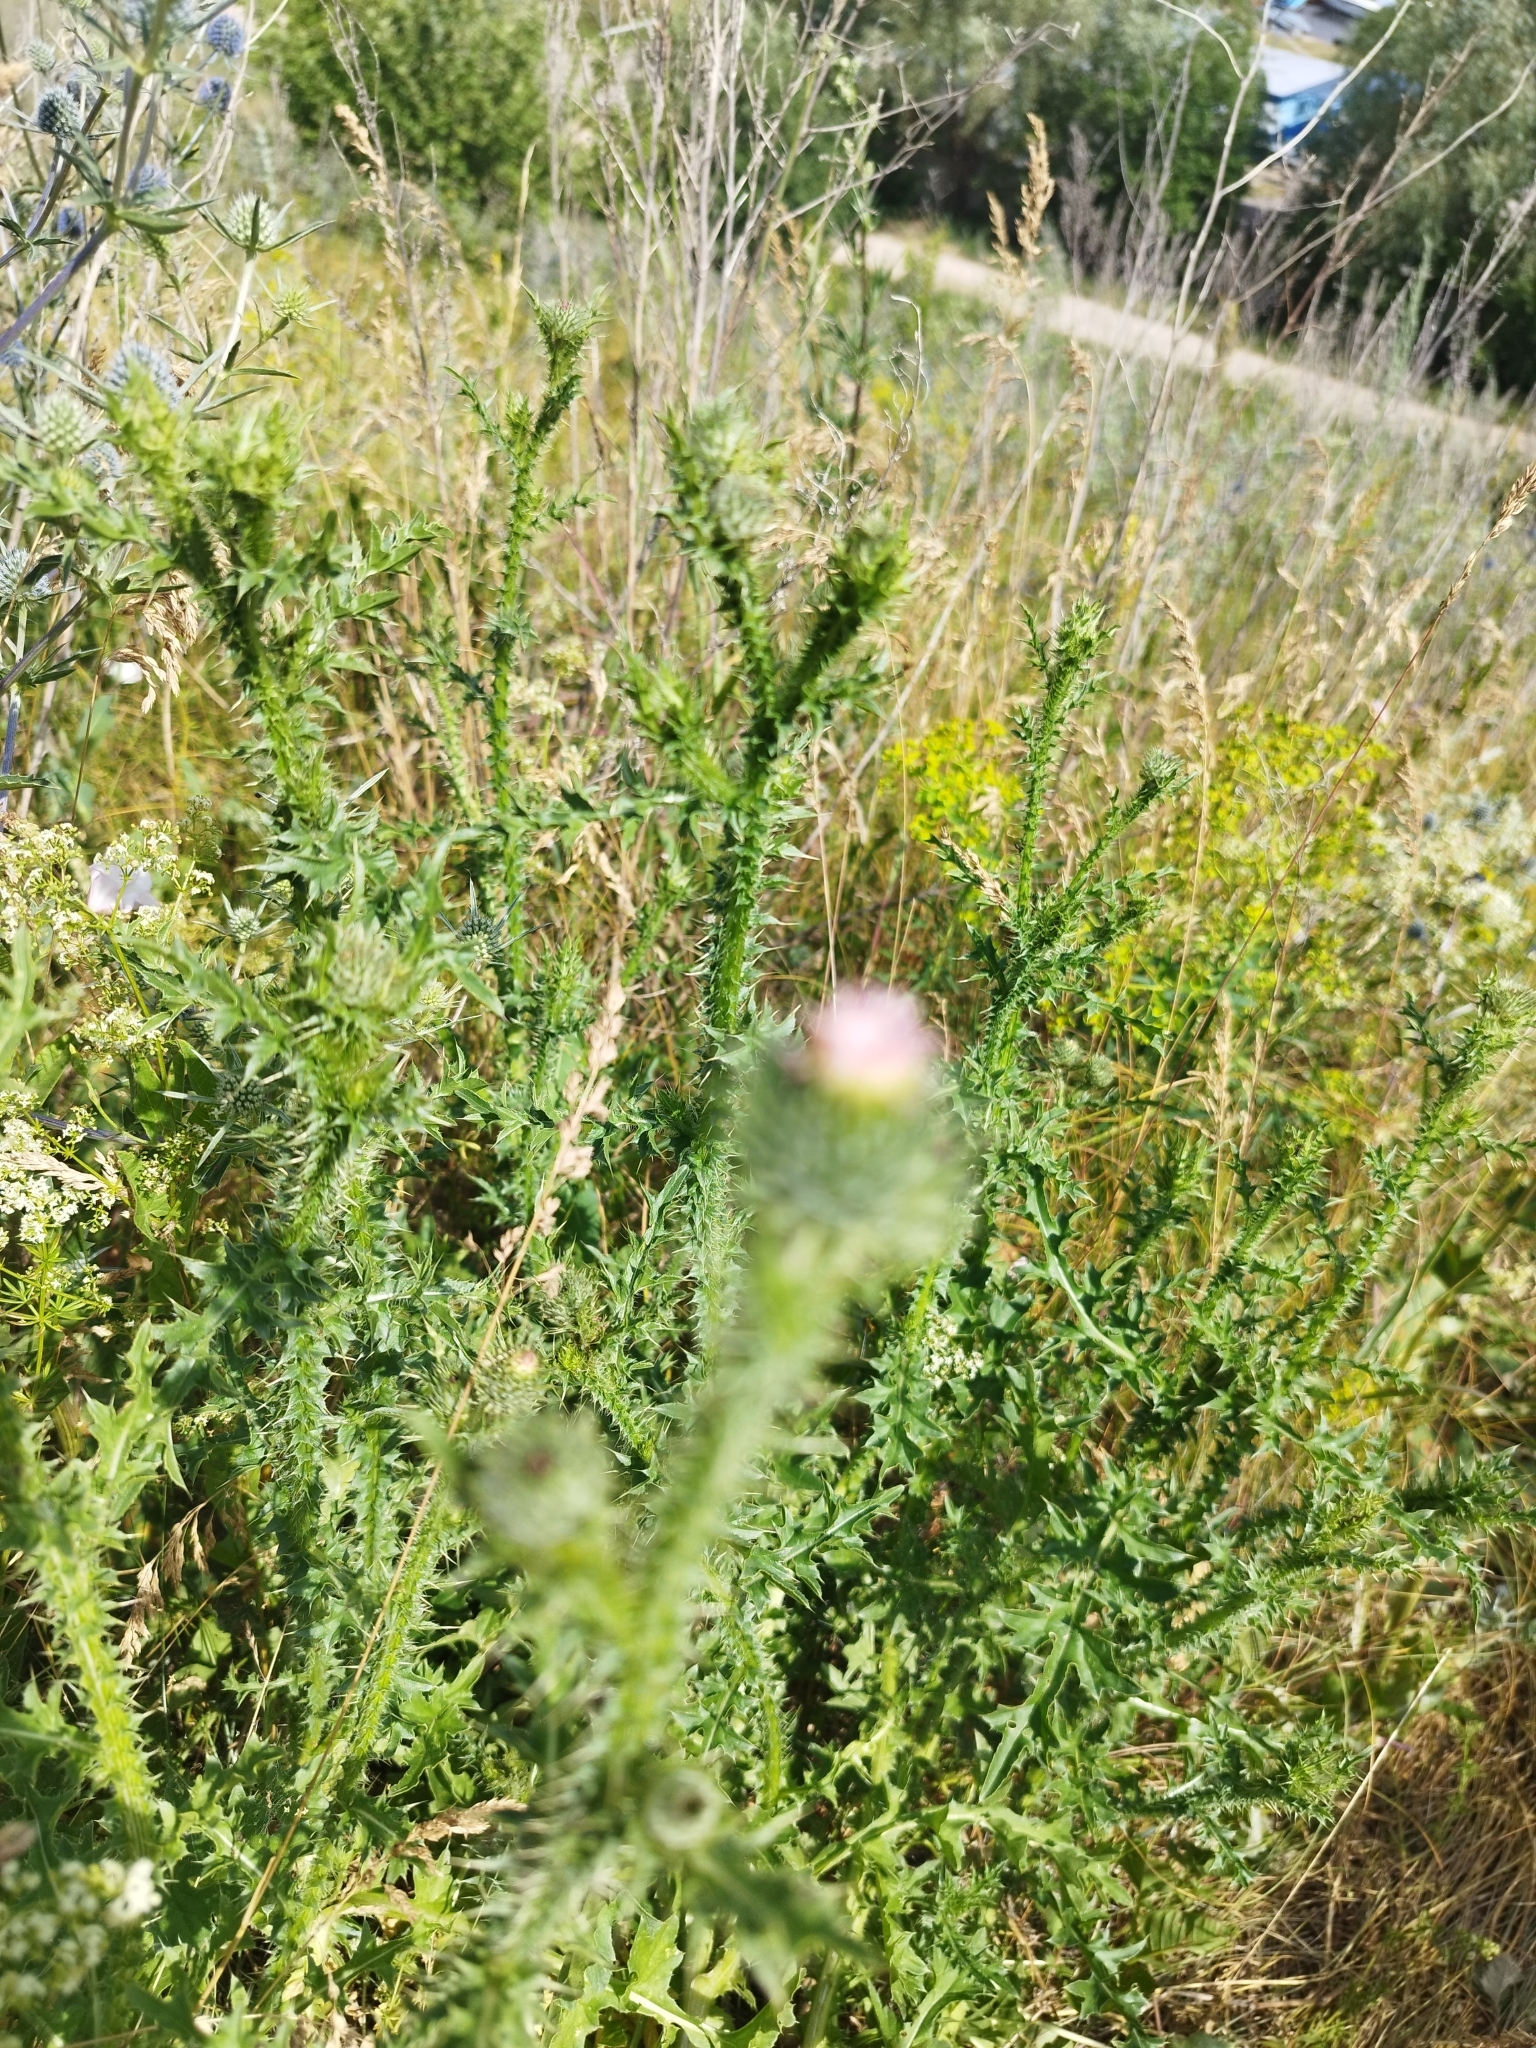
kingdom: Plantae
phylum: Tracheophyta
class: Magnoliopsida
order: Asterales
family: Asteraceae
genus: Carduus
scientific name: Carduus acanthoides
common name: Plumeless thistle
